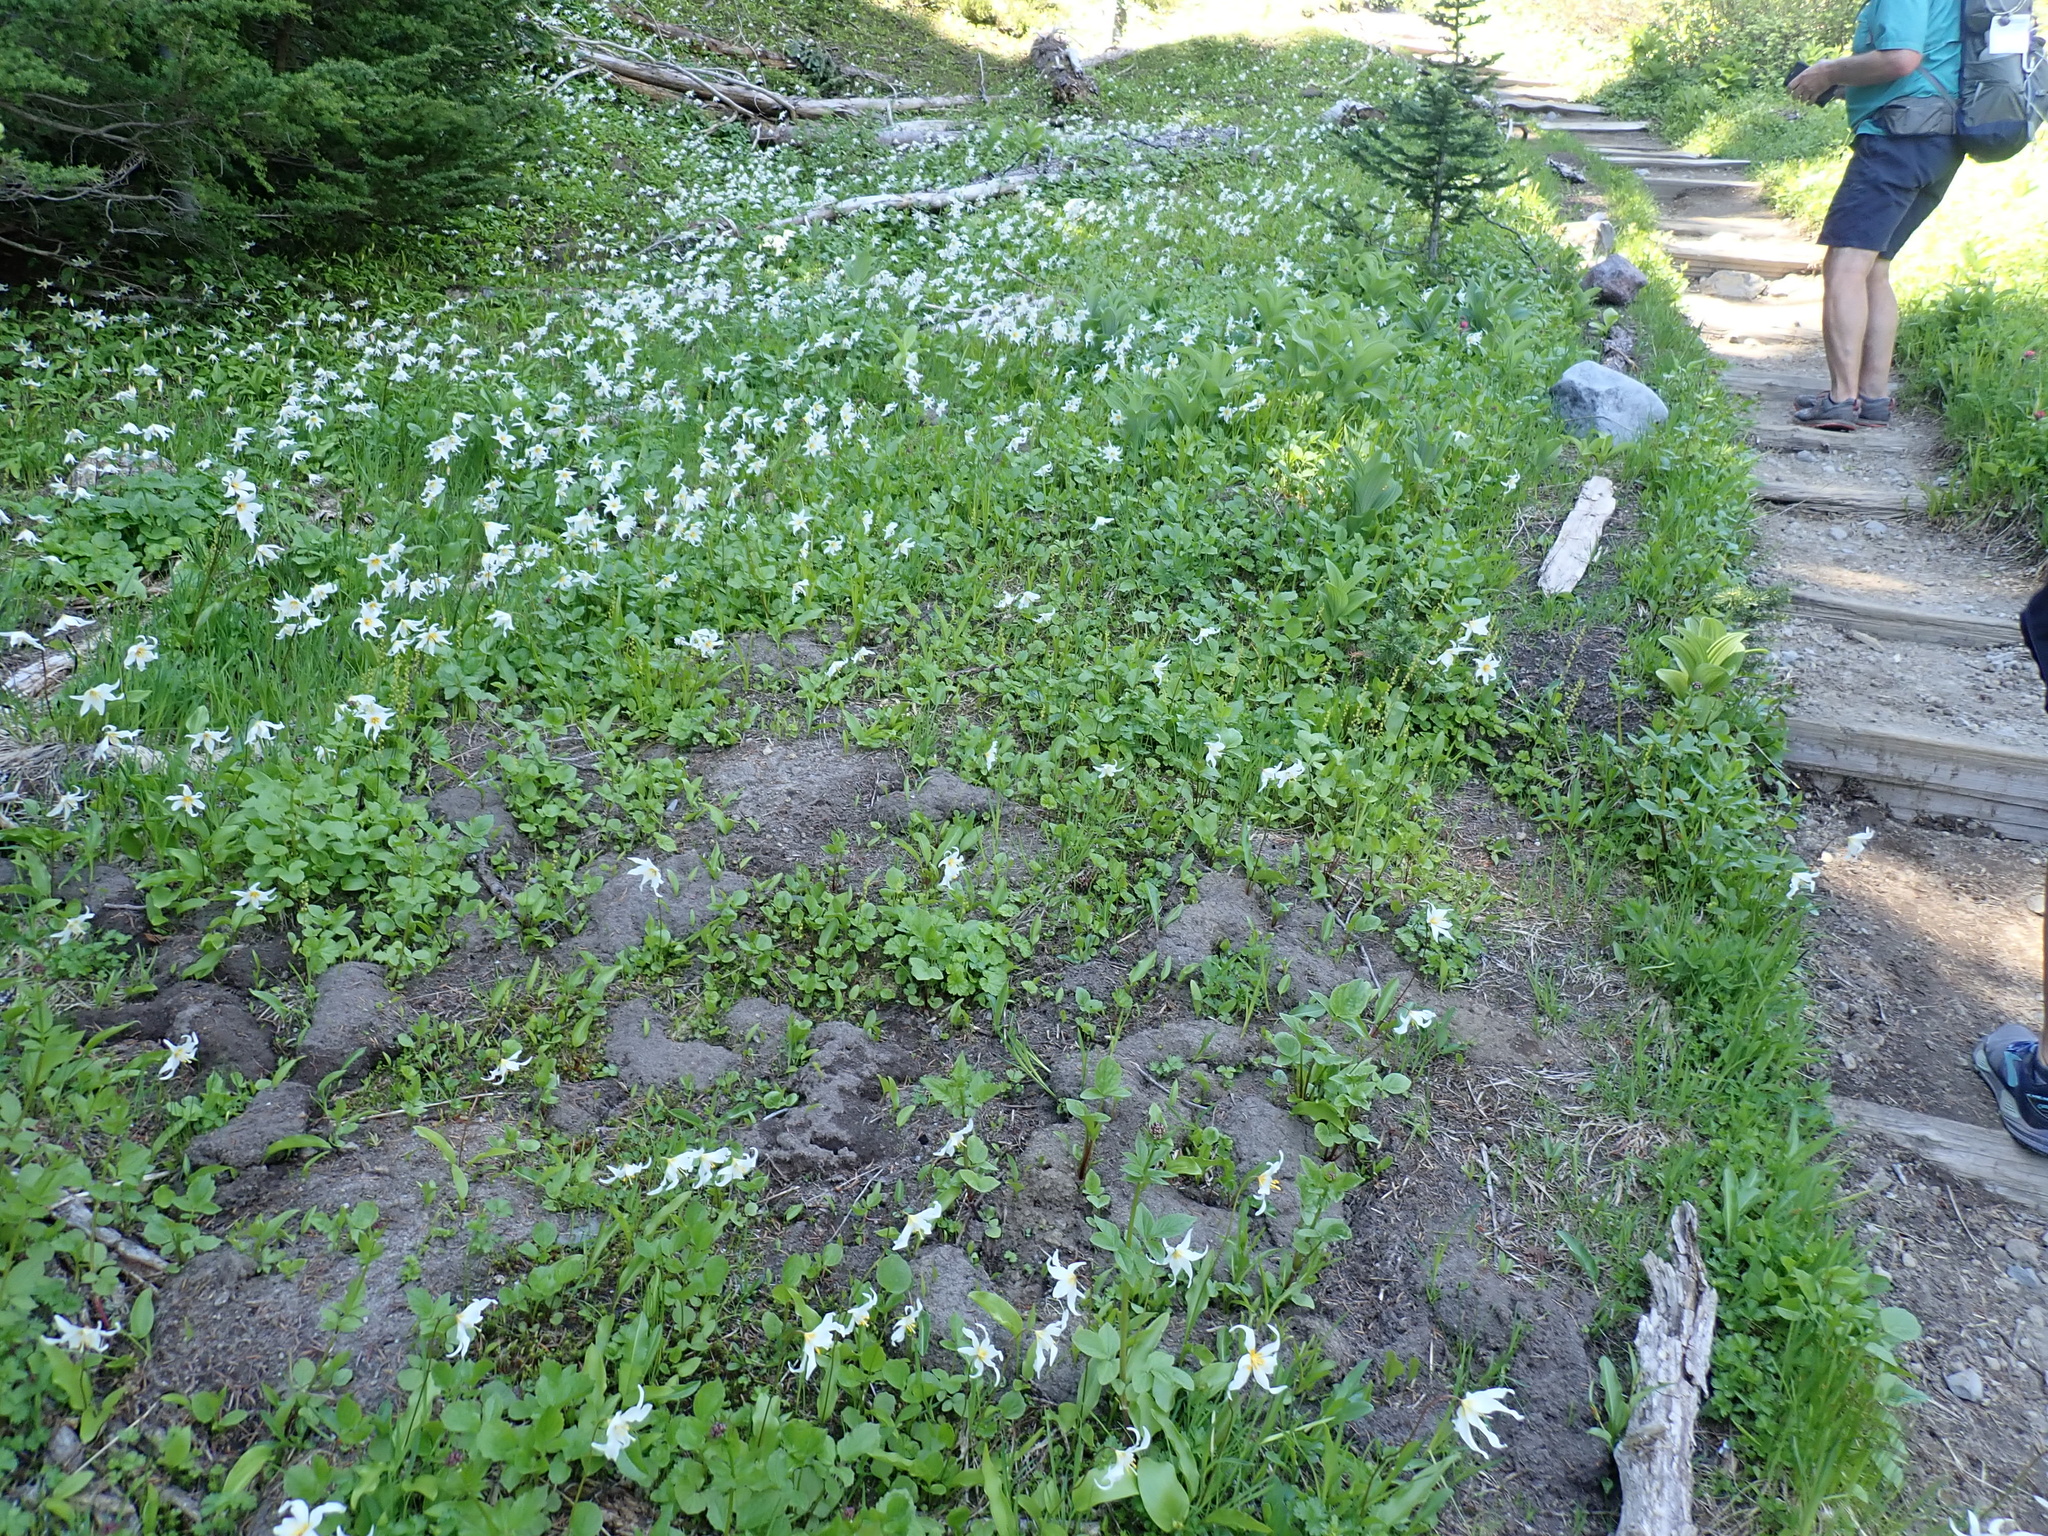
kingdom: Plantae
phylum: Tracheophyta
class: Liliopsida
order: Liliales
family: Liliaceae
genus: Erythronium
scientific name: Erythronium montanum
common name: Avalanche lily
